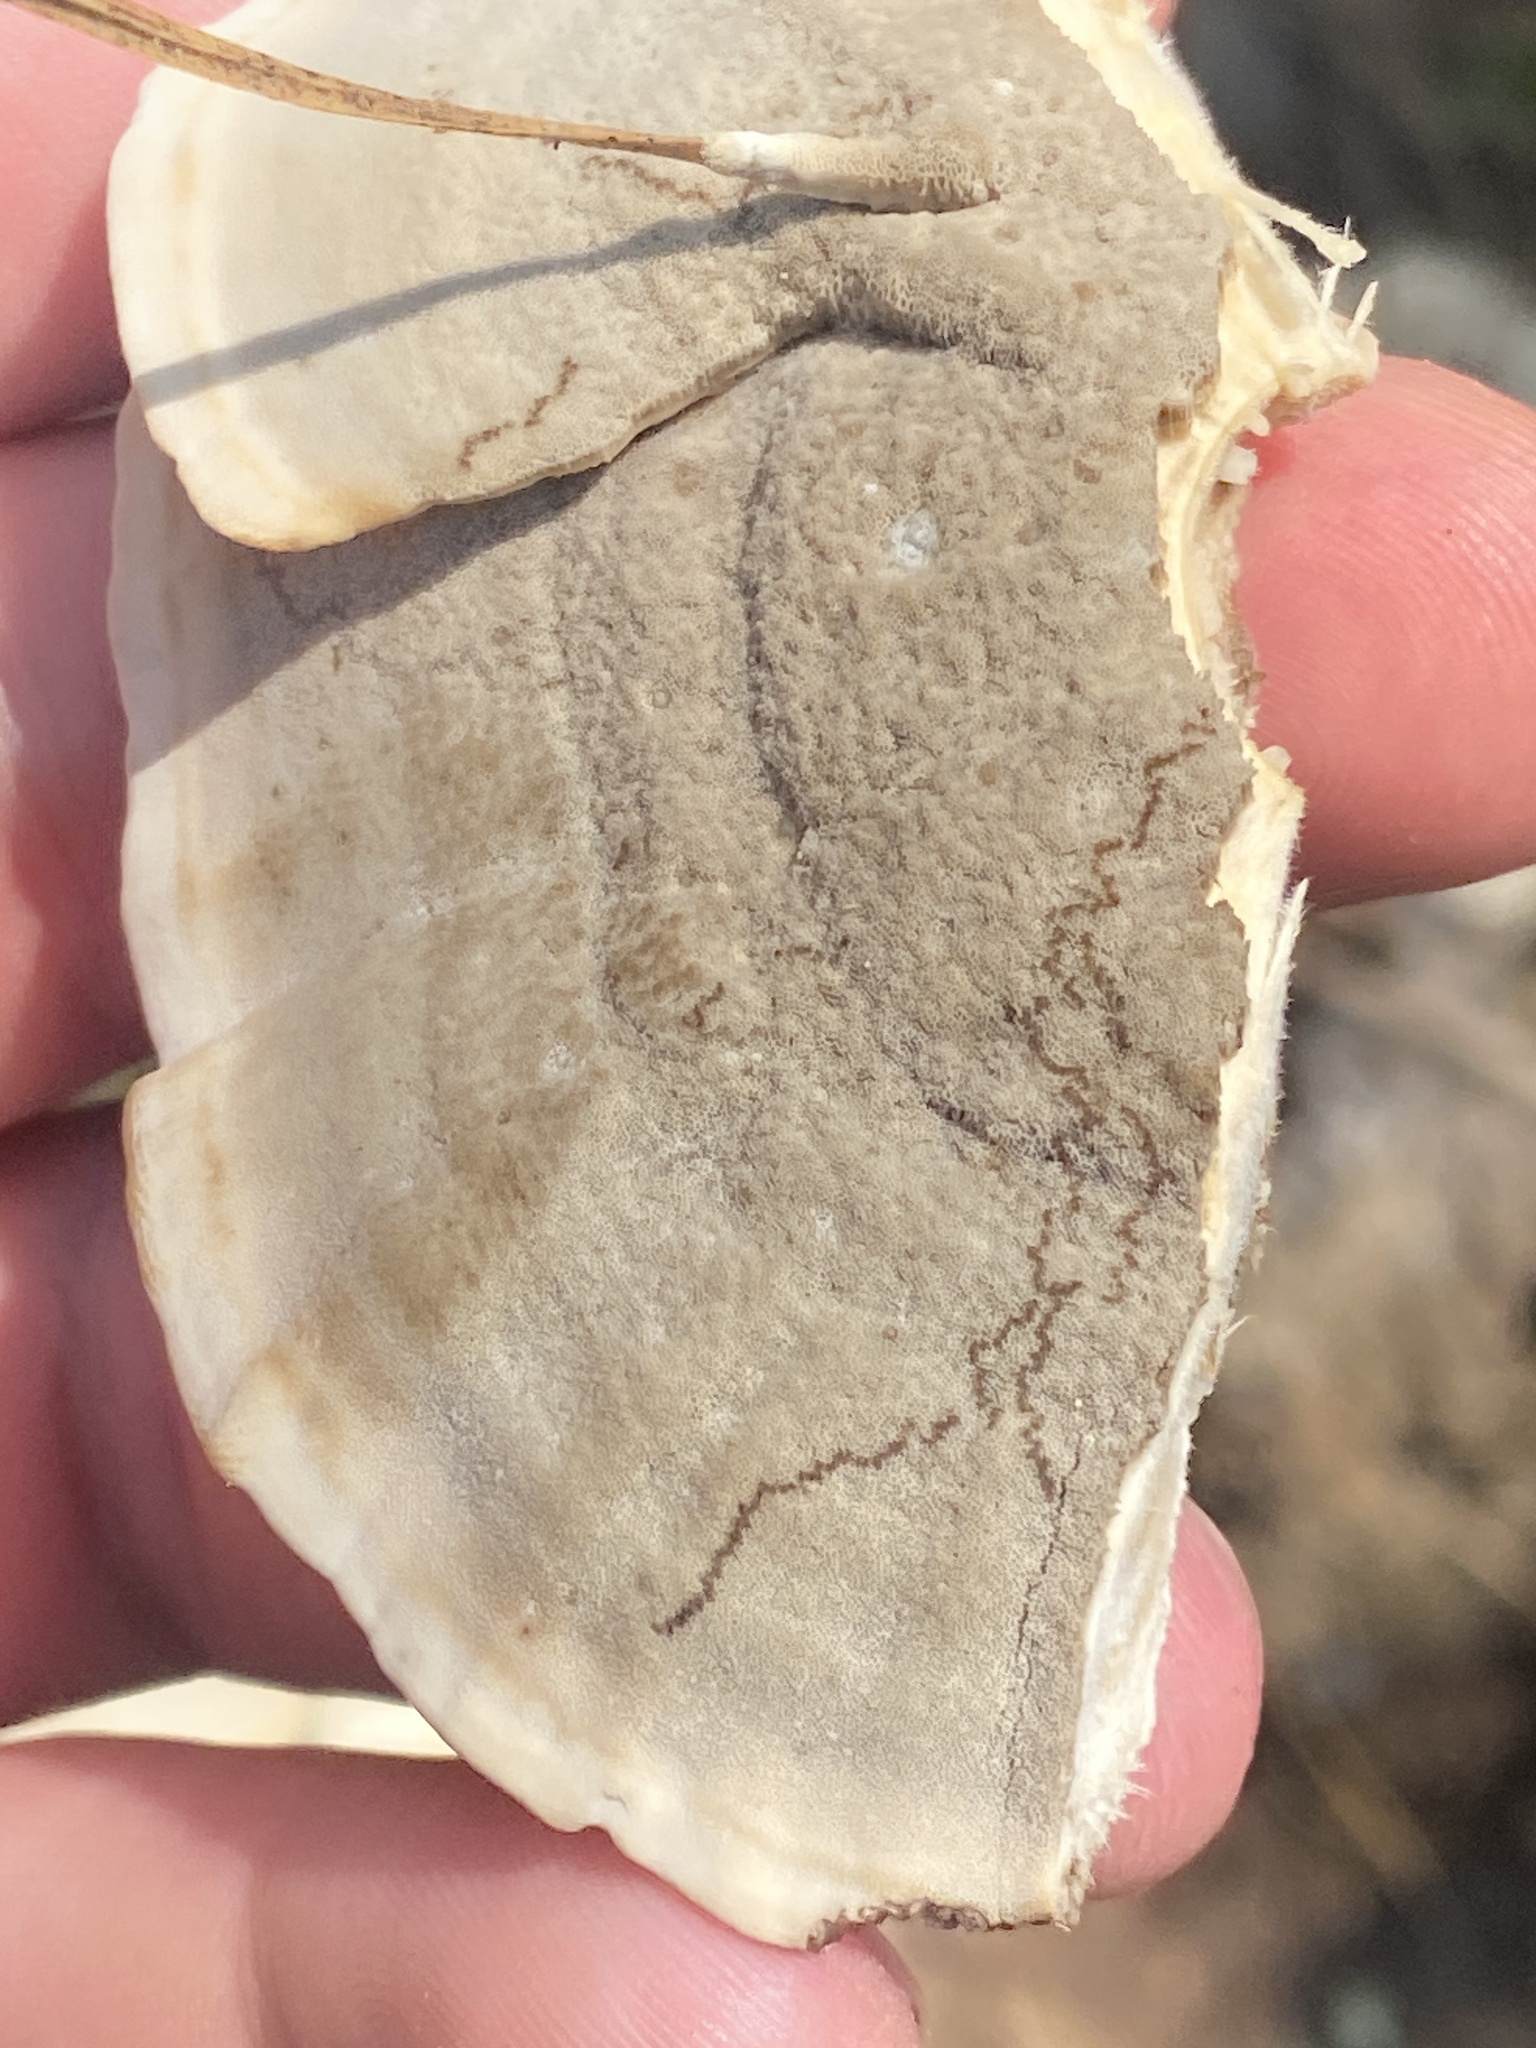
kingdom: Fungi
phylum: Basidiomycota
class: Agaricomycetes
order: Polyporales
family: Polyporaceae
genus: Trametes
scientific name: Trametes lactinea
